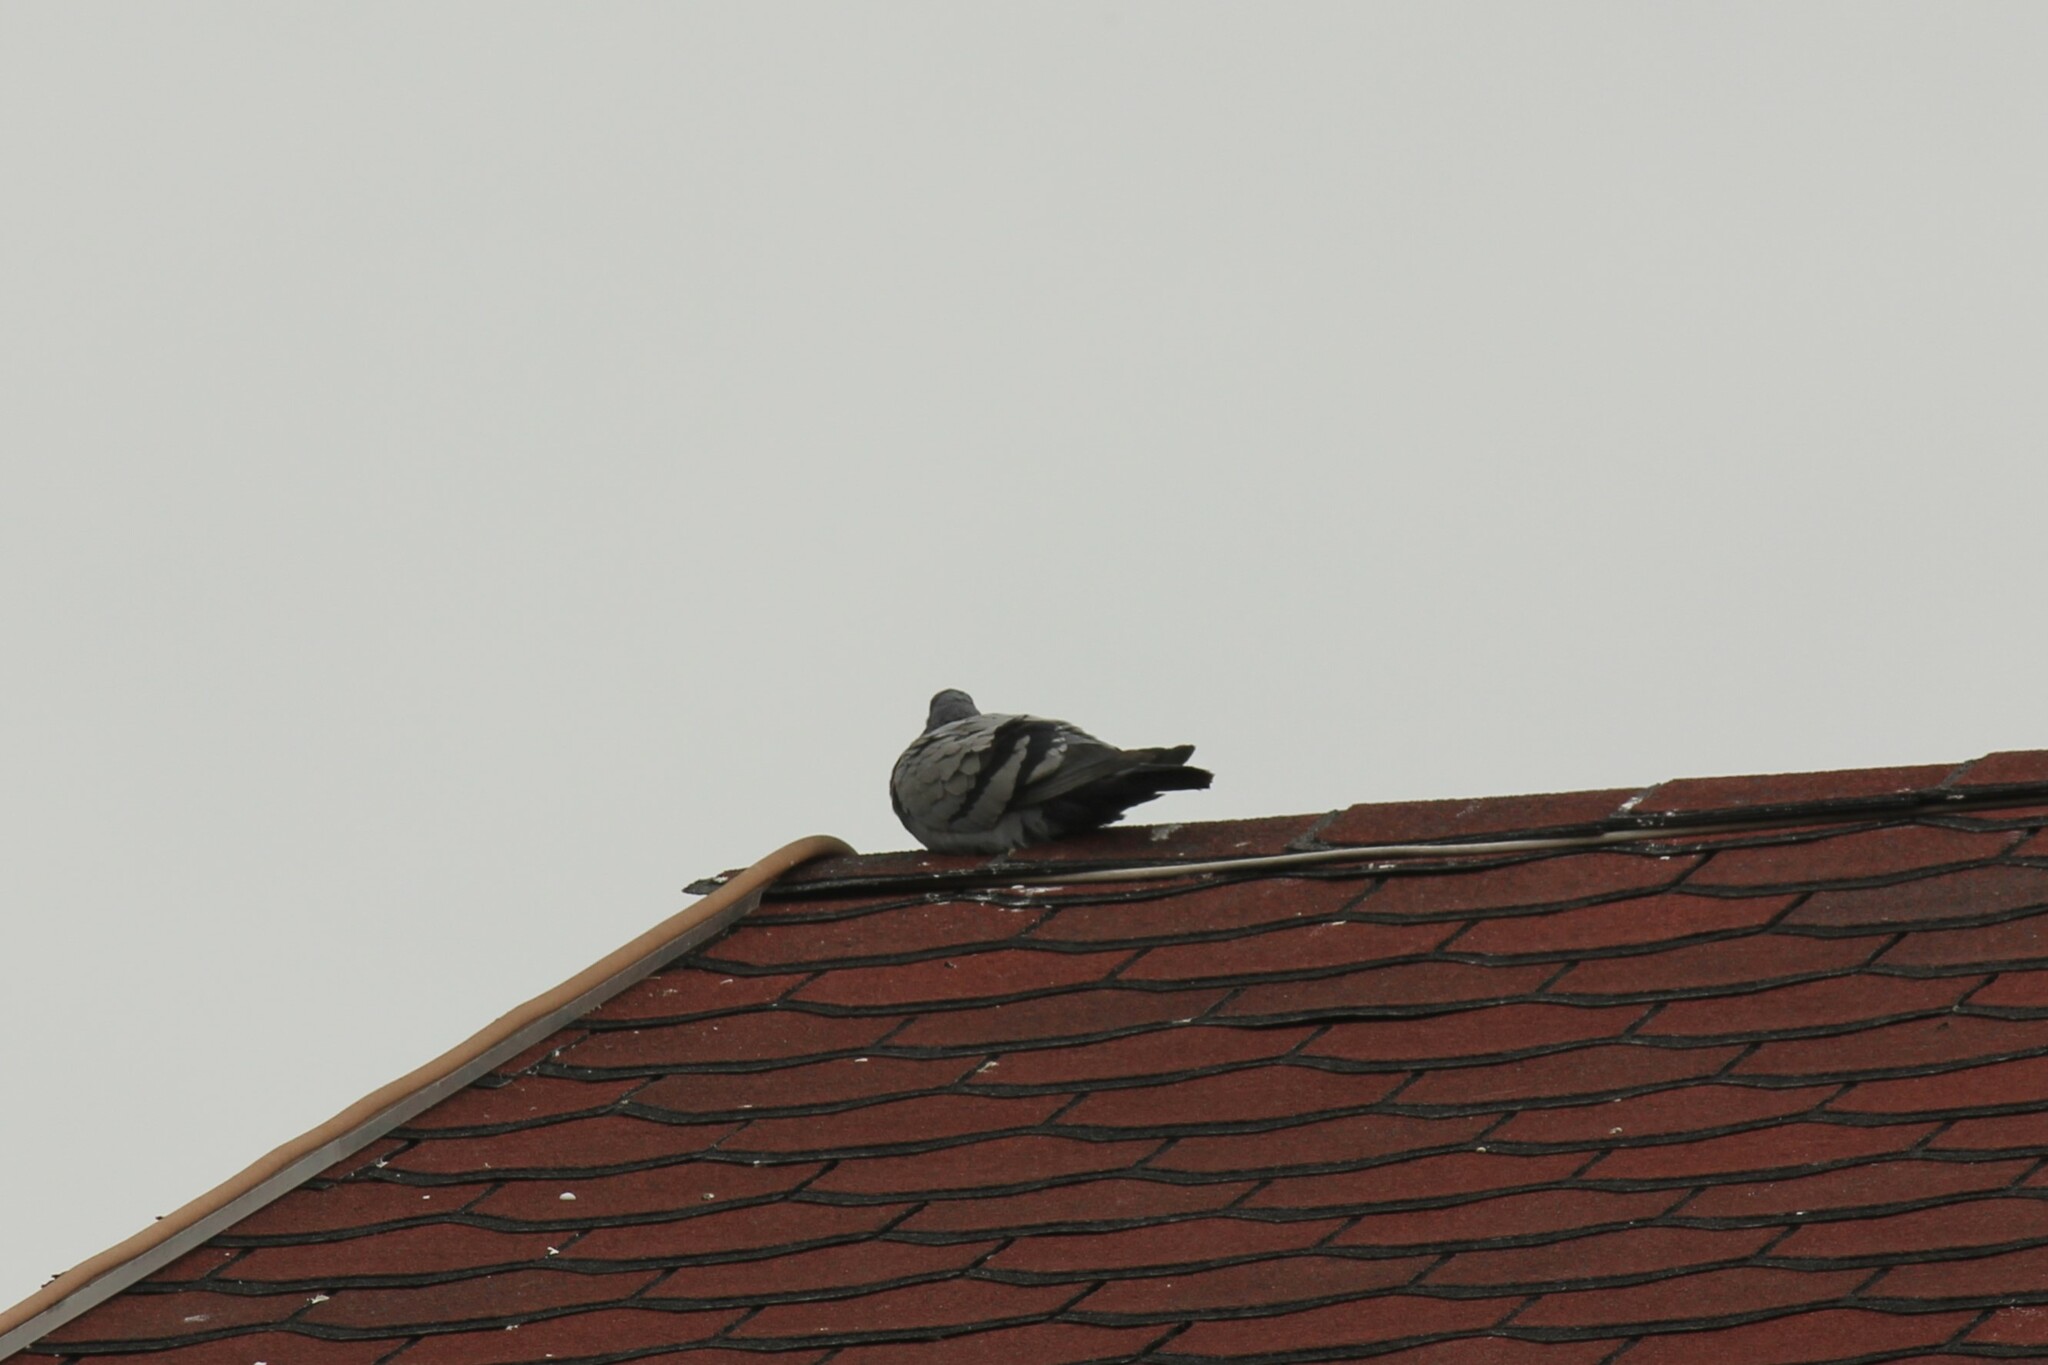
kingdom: Animalia
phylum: Chordata
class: Aves
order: Columbiformes
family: Columbidae
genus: Columba
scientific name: Columba livia
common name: Rock pigeon
